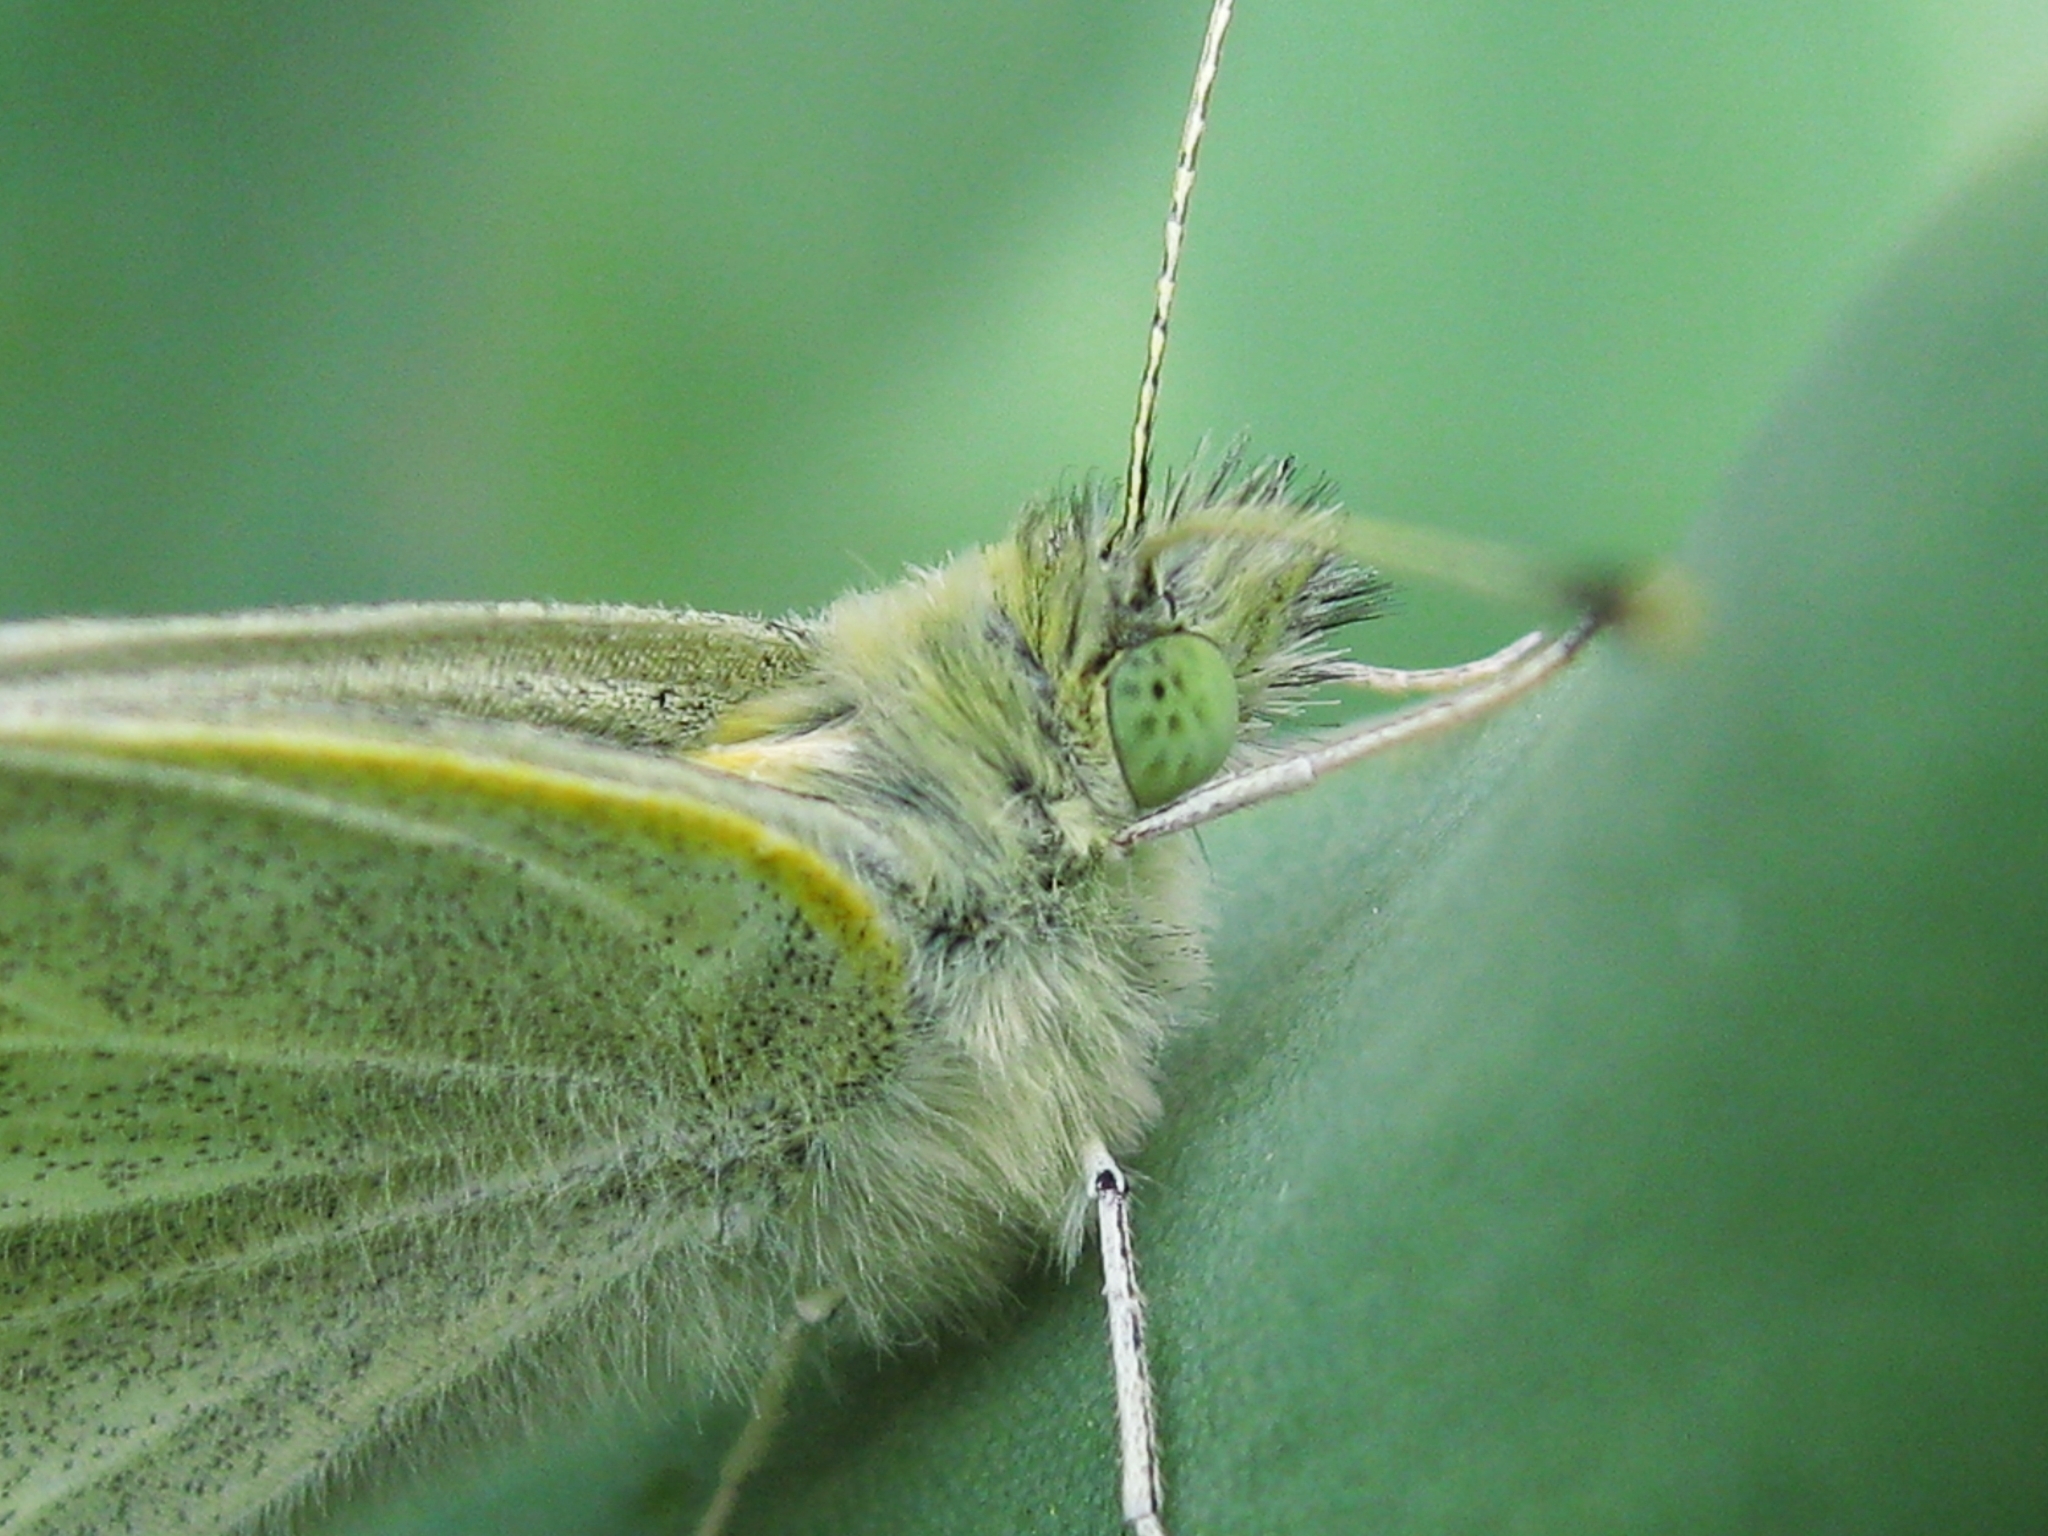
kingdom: Animalia
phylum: Arthropoda
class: Insecta
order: Lepidoptera
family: Pieridae
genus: Pieris
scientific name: Pieris rapae
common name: Small white
